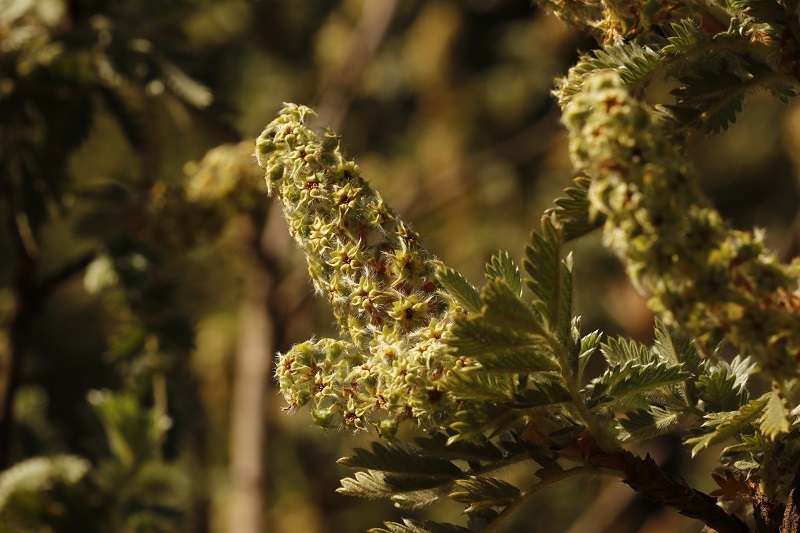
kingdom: Plantae
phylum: Tracheophyta
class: Magnoliopsida
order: Rosales
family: Rosaceae
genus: Leucosidea
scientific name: Leucosidea sericea
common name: Oldwood
